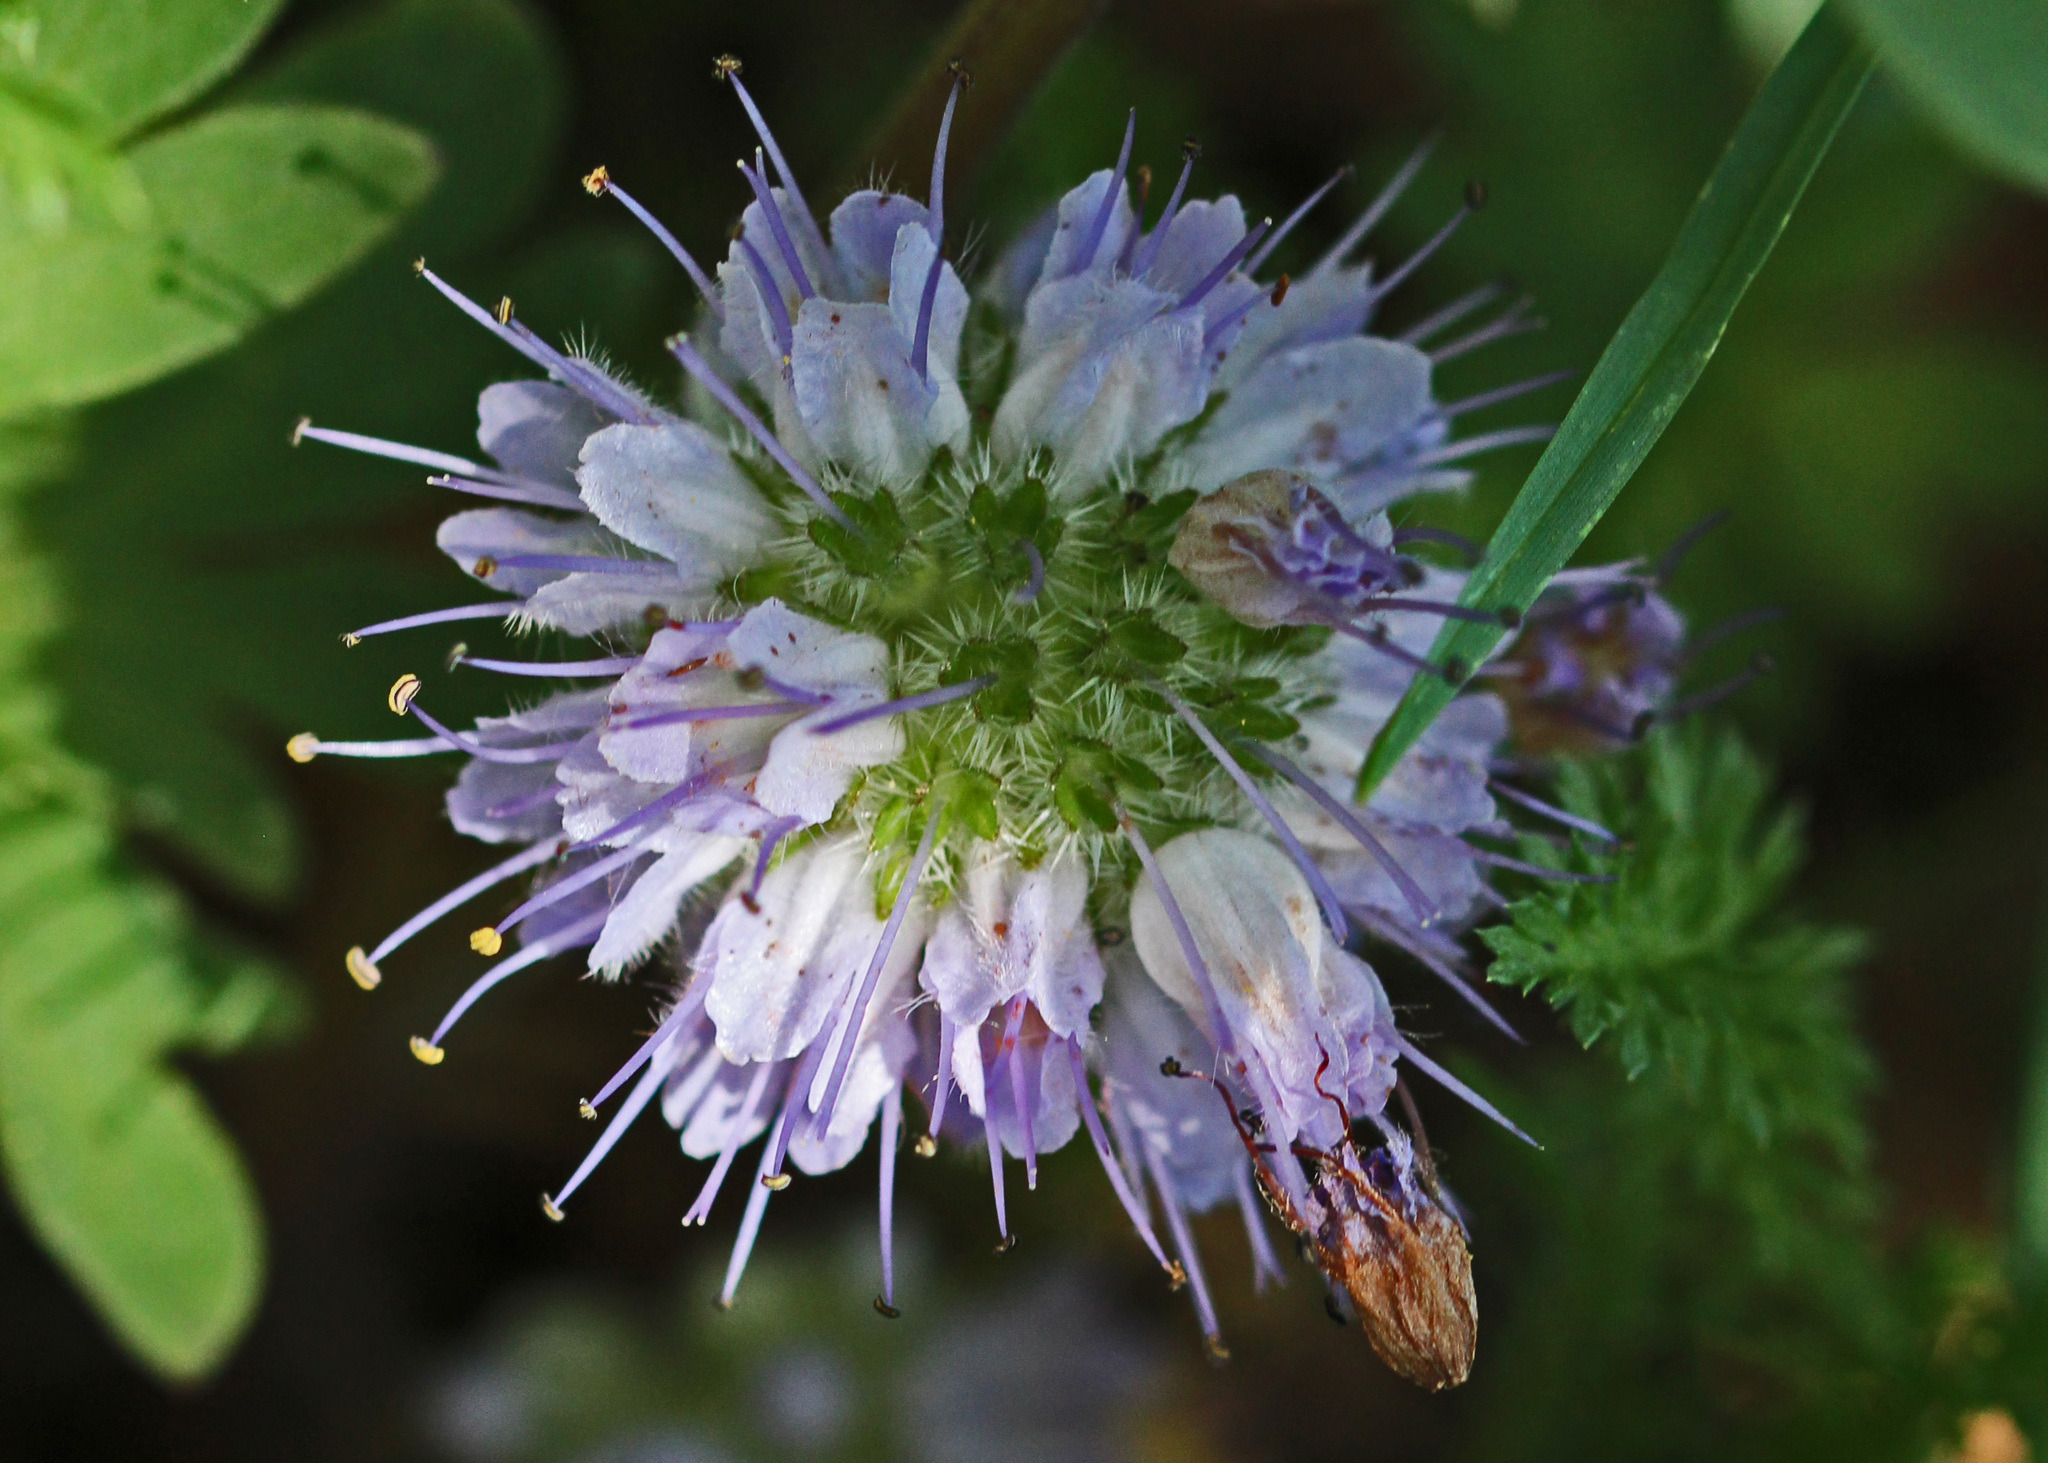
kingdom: Plantae
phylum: Tracheophyta
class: Magnoliopsida
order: Boraginales
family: Hydrophyllaceae
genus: Hydrophyllum
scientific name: Hydrophyllum capitatum
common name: Woollen-breeches
